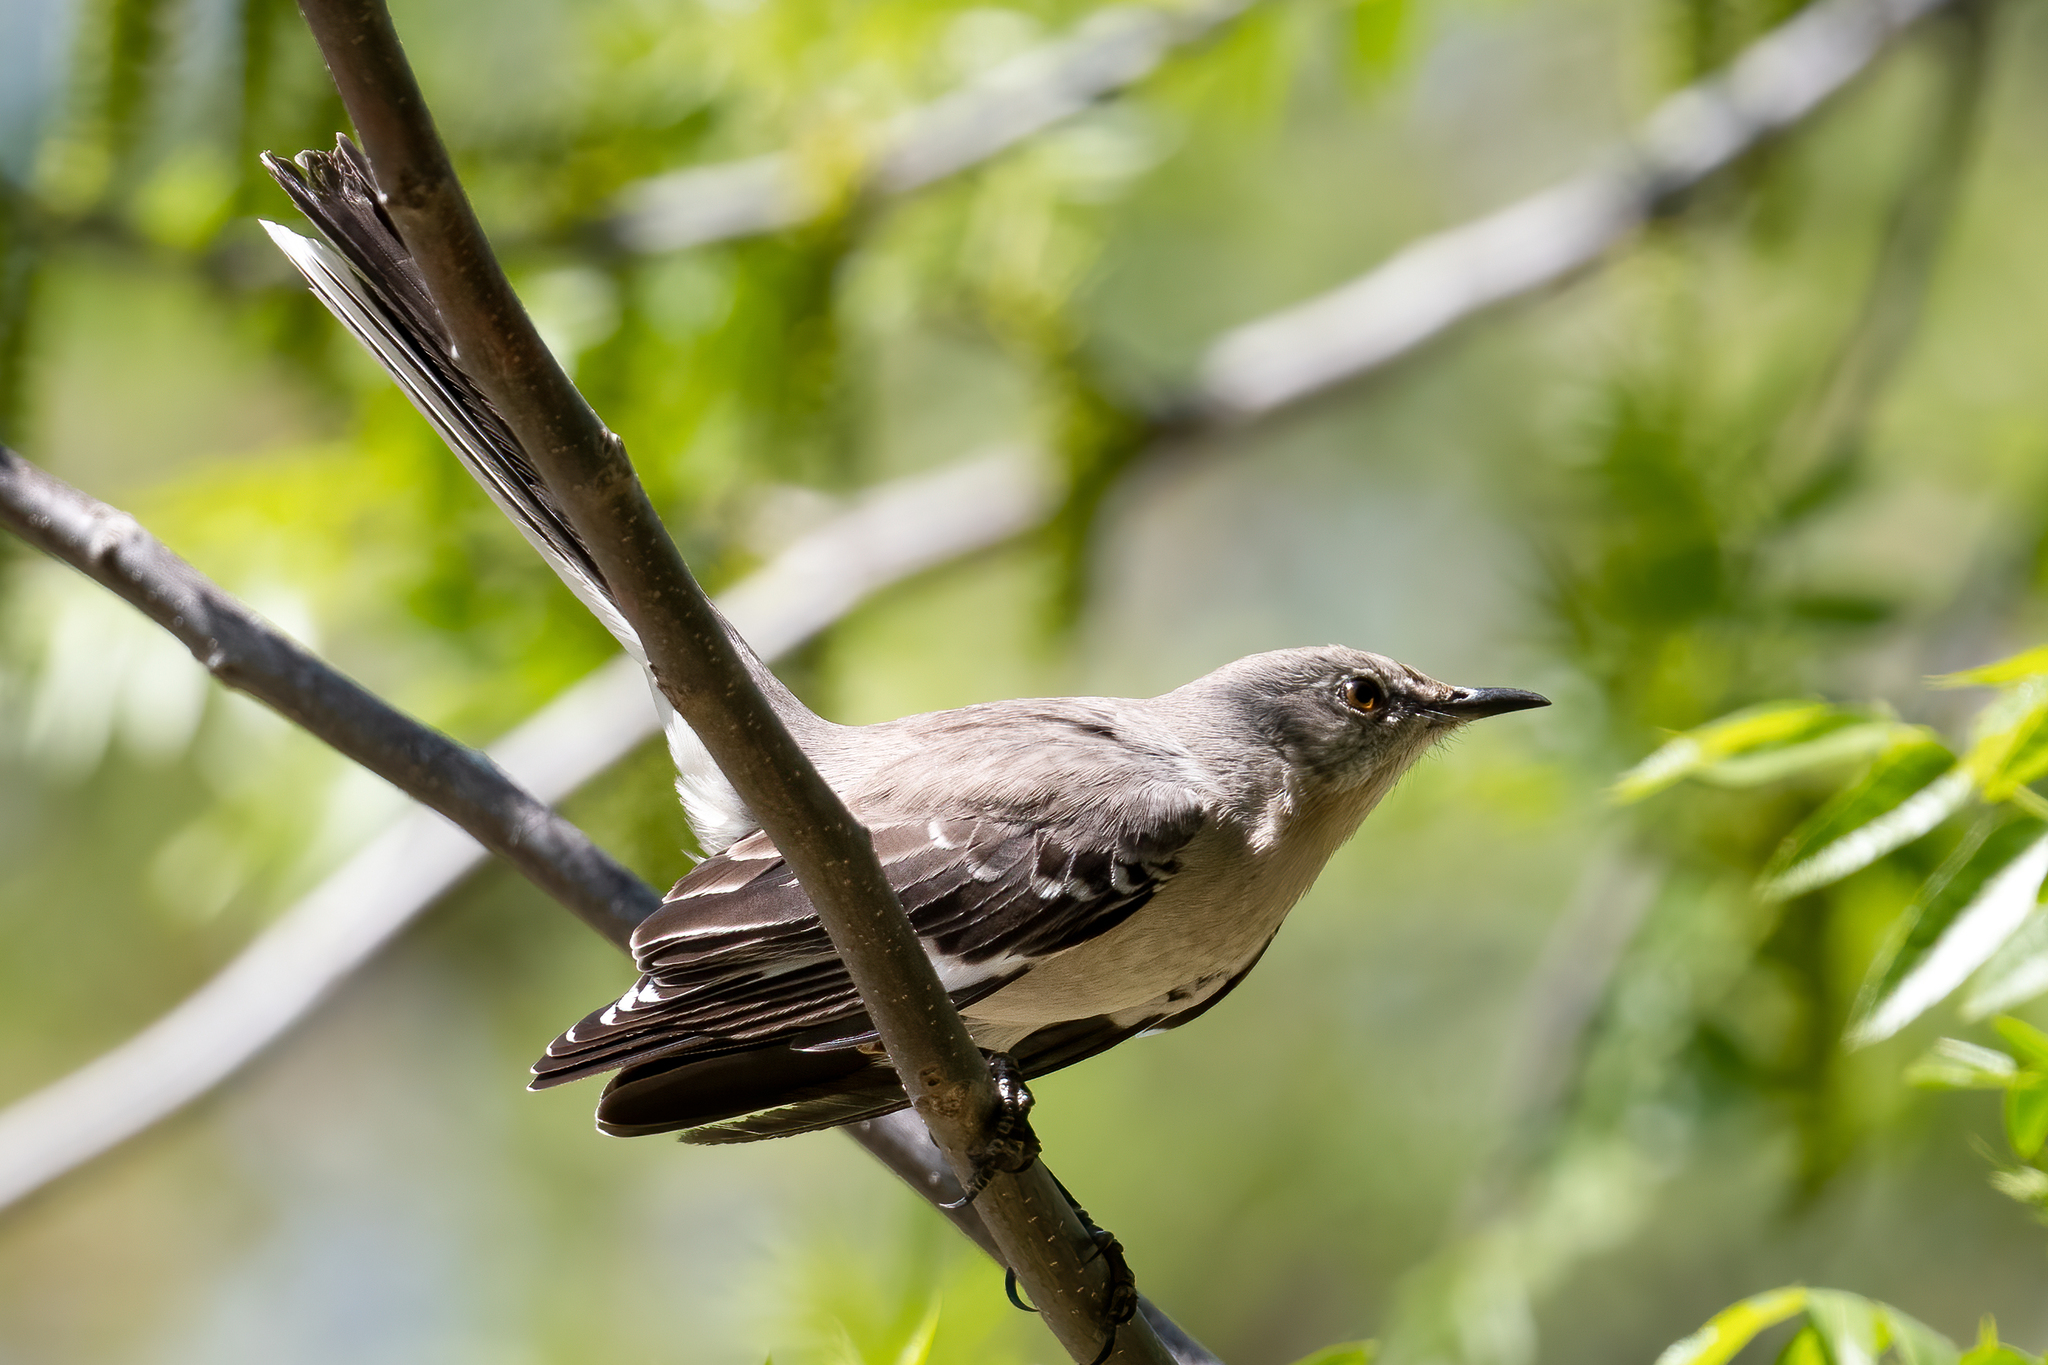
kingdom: Animalia
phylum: Chordata
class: Aves
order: Passeriformes
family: Mimidae
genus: Mimus
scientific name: Mimus polyglottos
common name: Northern mockingbird
